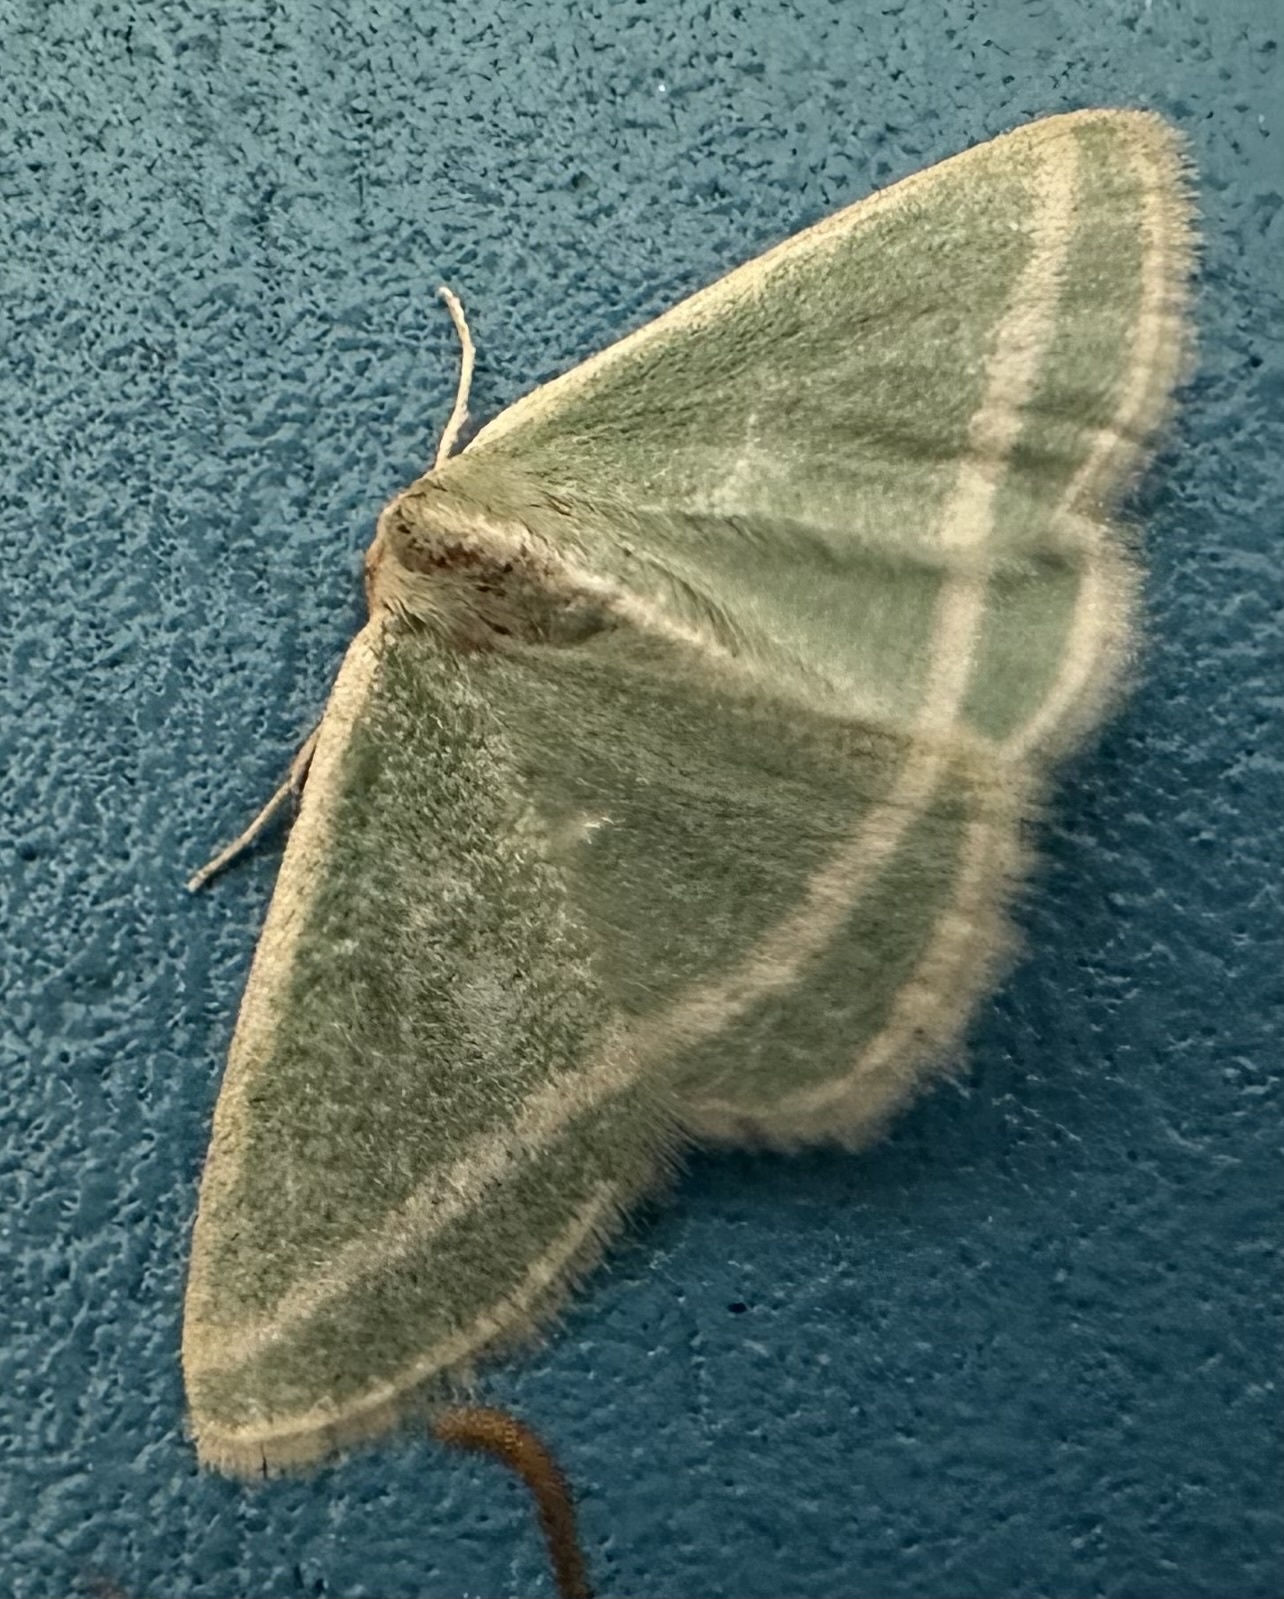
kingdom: Animalia
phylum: Arthropoda
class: Insecta
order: Lepidoptera
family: Geometridae
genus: Mixocera
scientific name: Mixocera frustratoria
